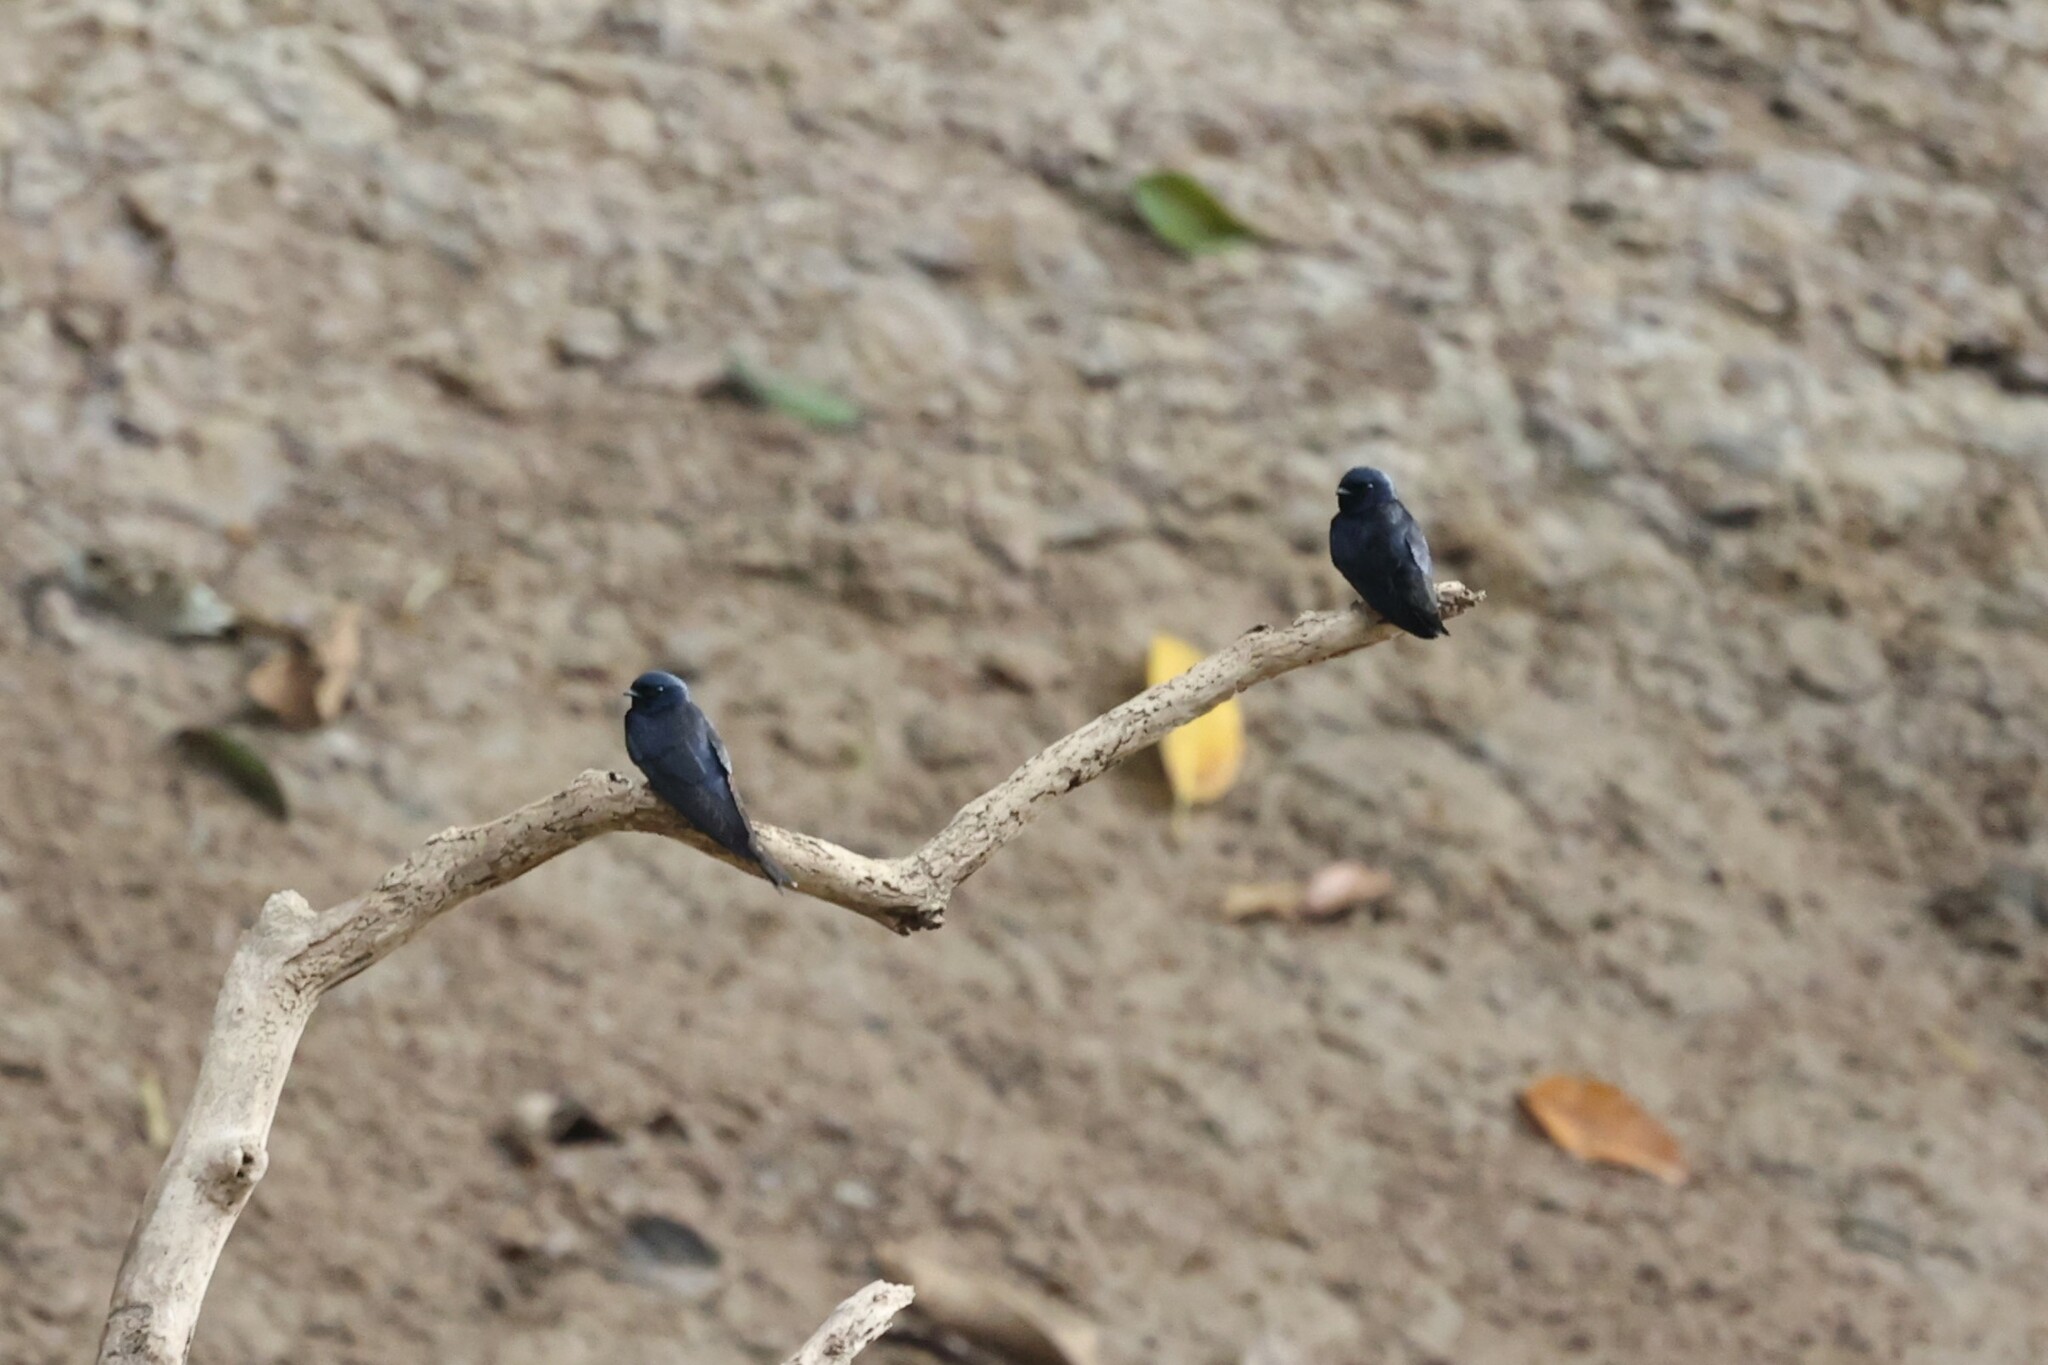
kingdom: Animalia
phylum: Chordata
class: Aves
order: Passeriformes
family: Hirundinidae
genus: Atticora
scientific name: Atticora fasciata
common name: White-banded swallow
